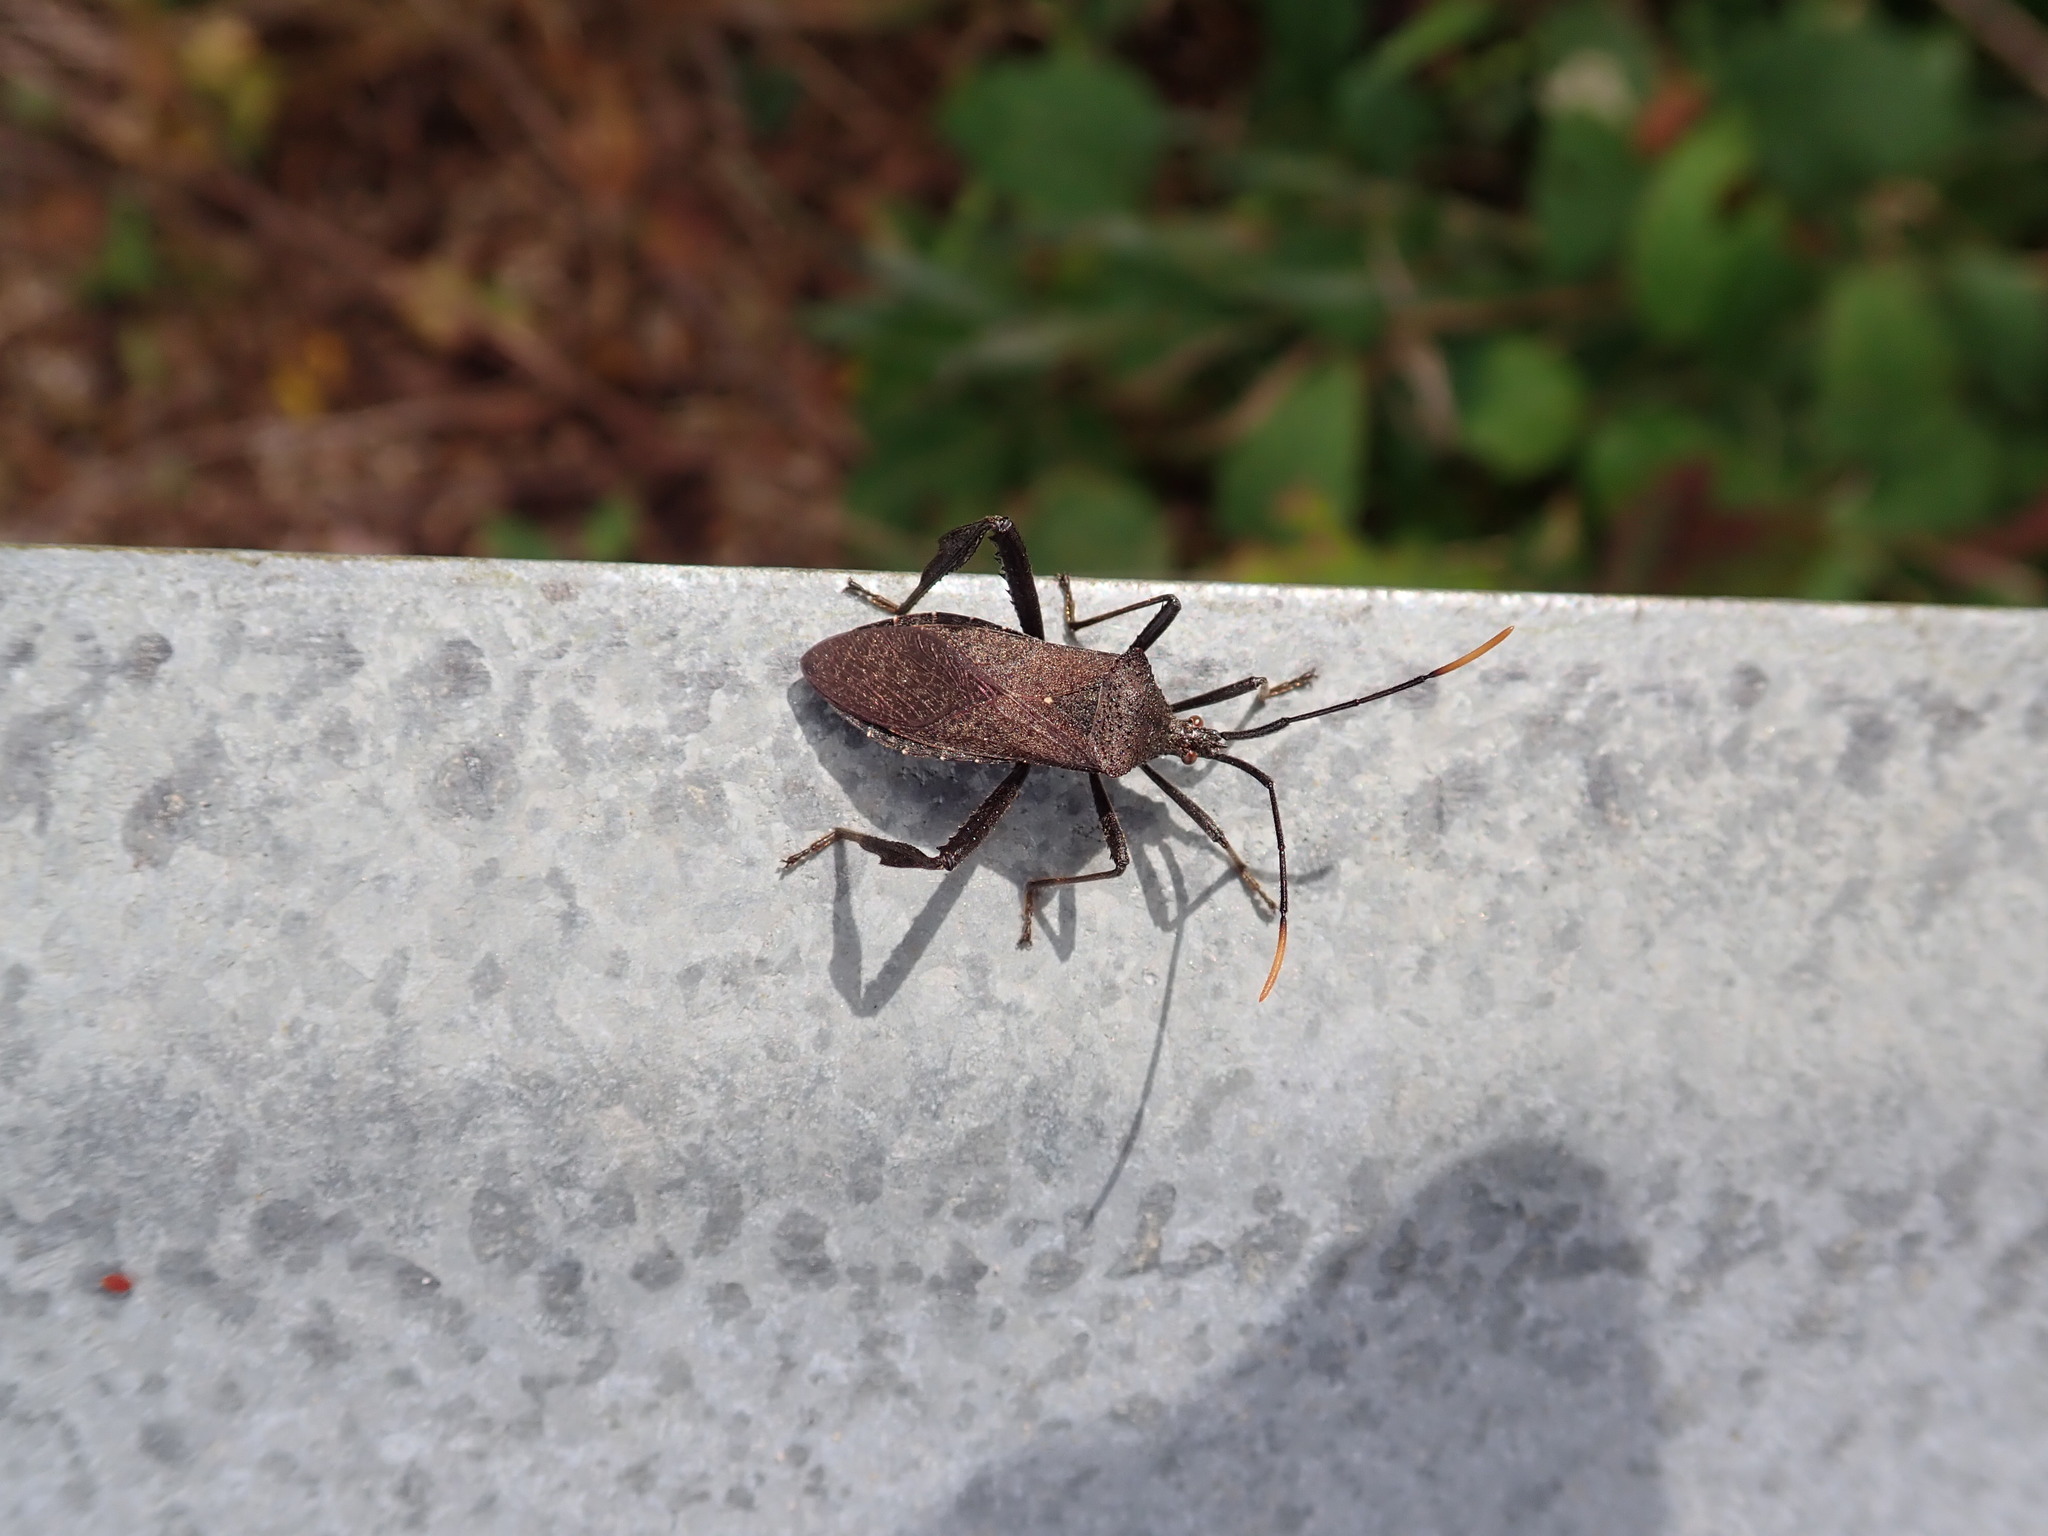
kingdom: Animalia
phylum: Arthropoda
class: Insecta
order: Hemiptera
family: Coreidae
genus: Acanthocephala
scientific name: Acanthocephala terminalis
